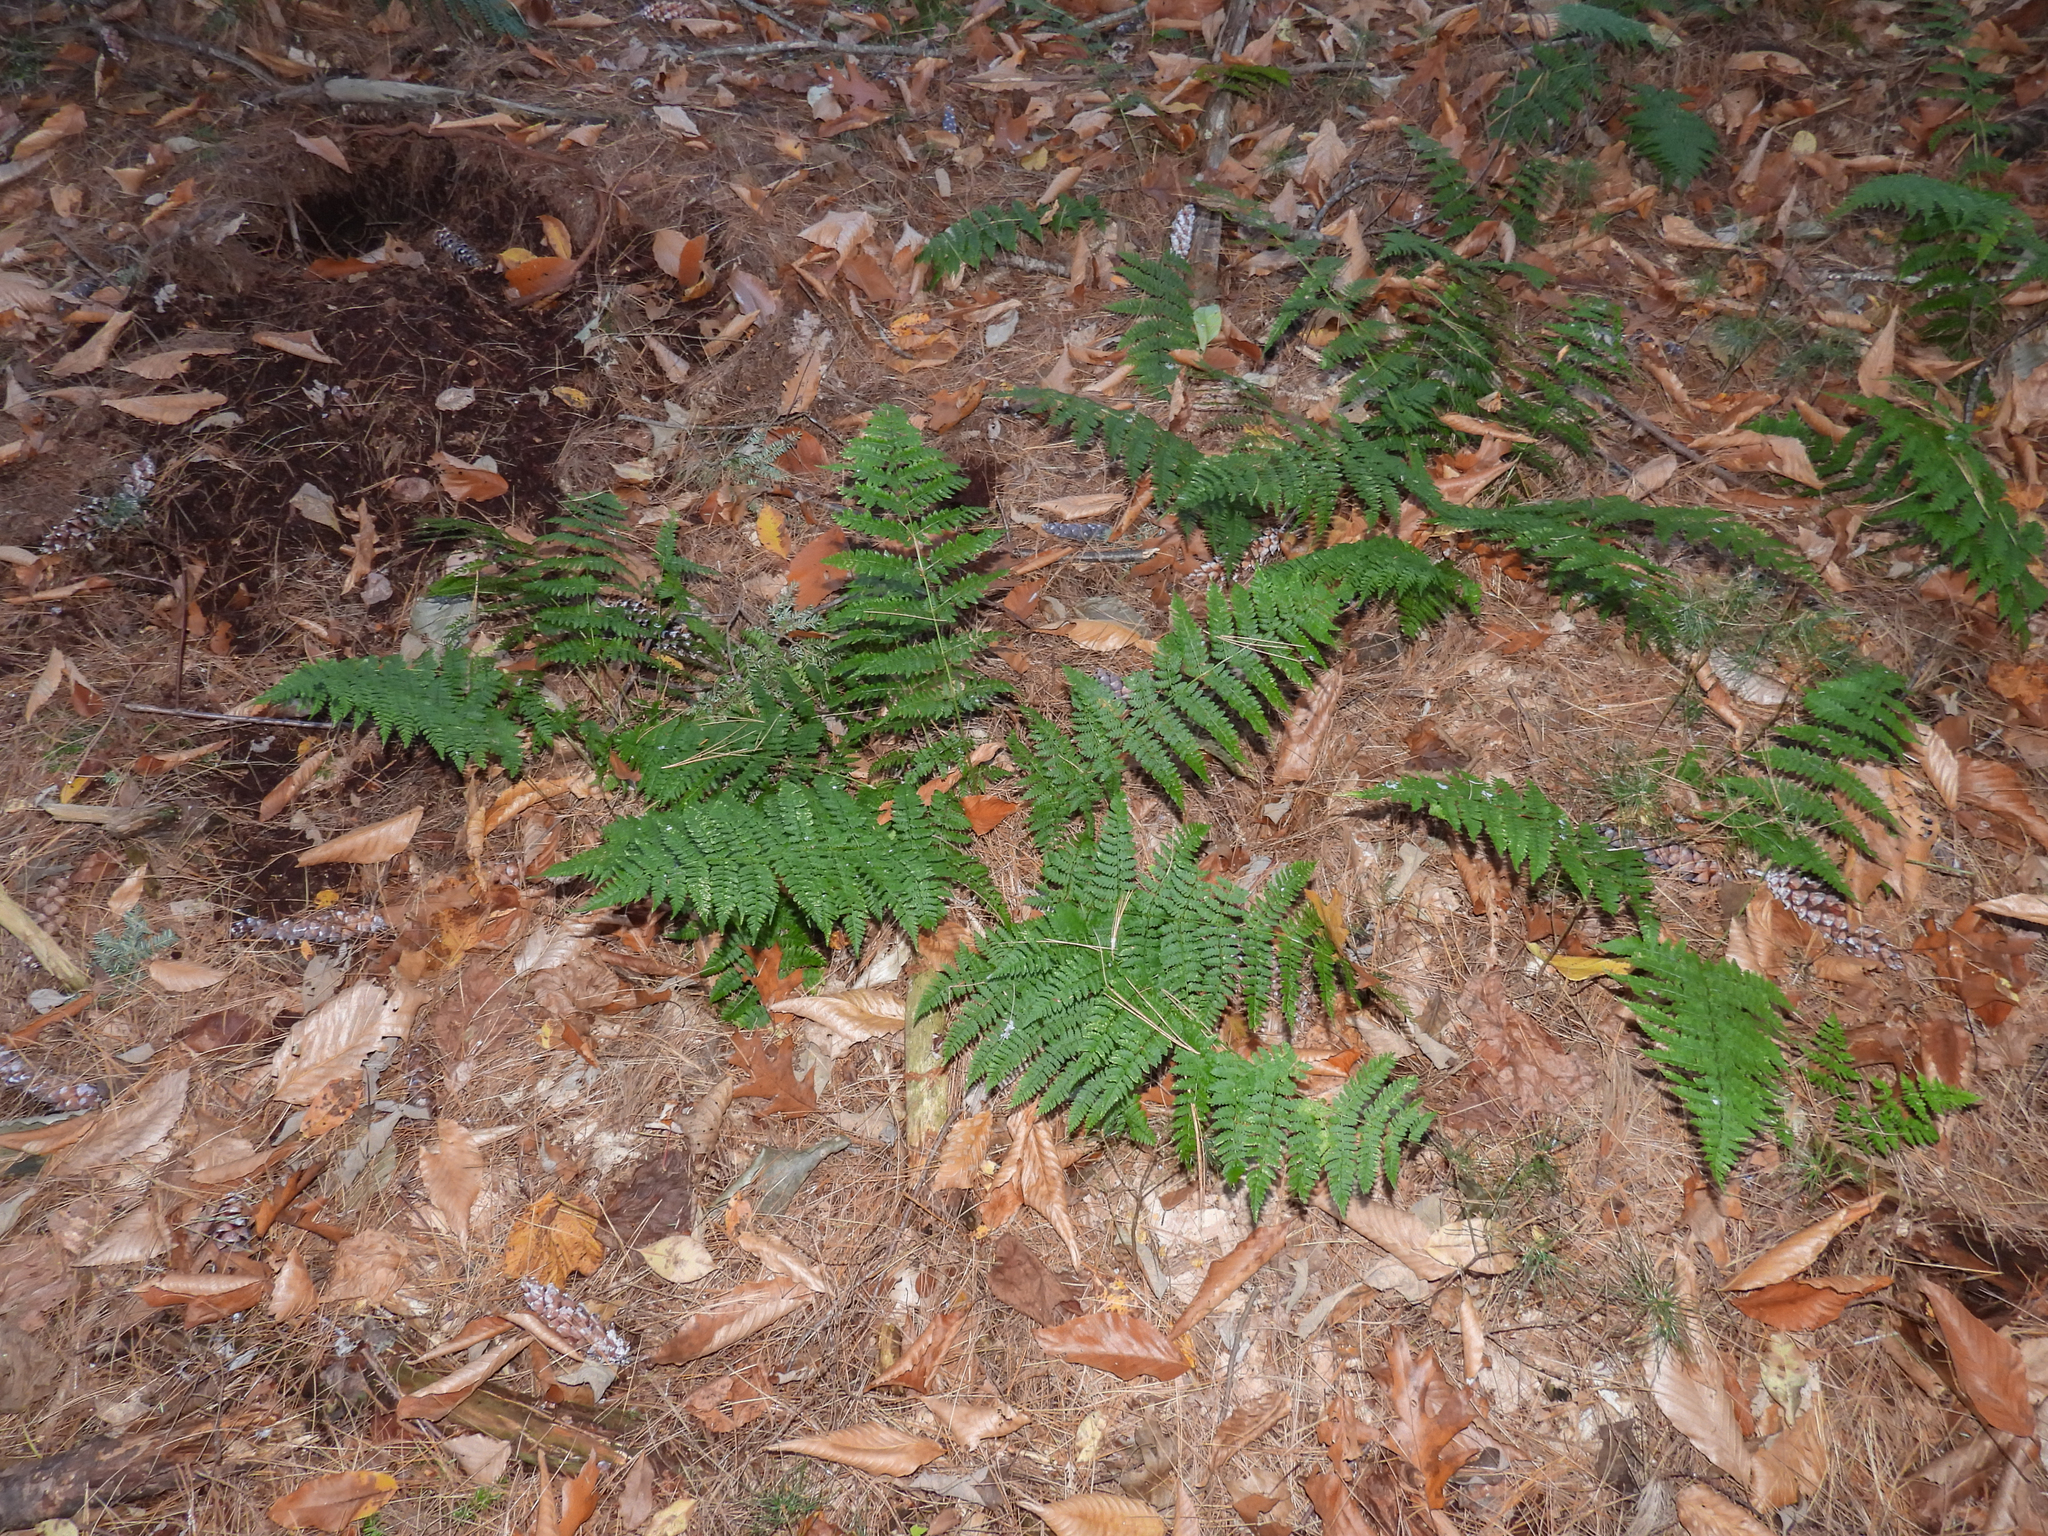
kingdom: Plantae
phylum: Tracheophyta
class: Polypodiopsida
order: Polypodiales
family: Dryopteridaceae
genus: Dryopteris
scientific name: Dryopteris intermedia
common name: Evergreen wood fern
